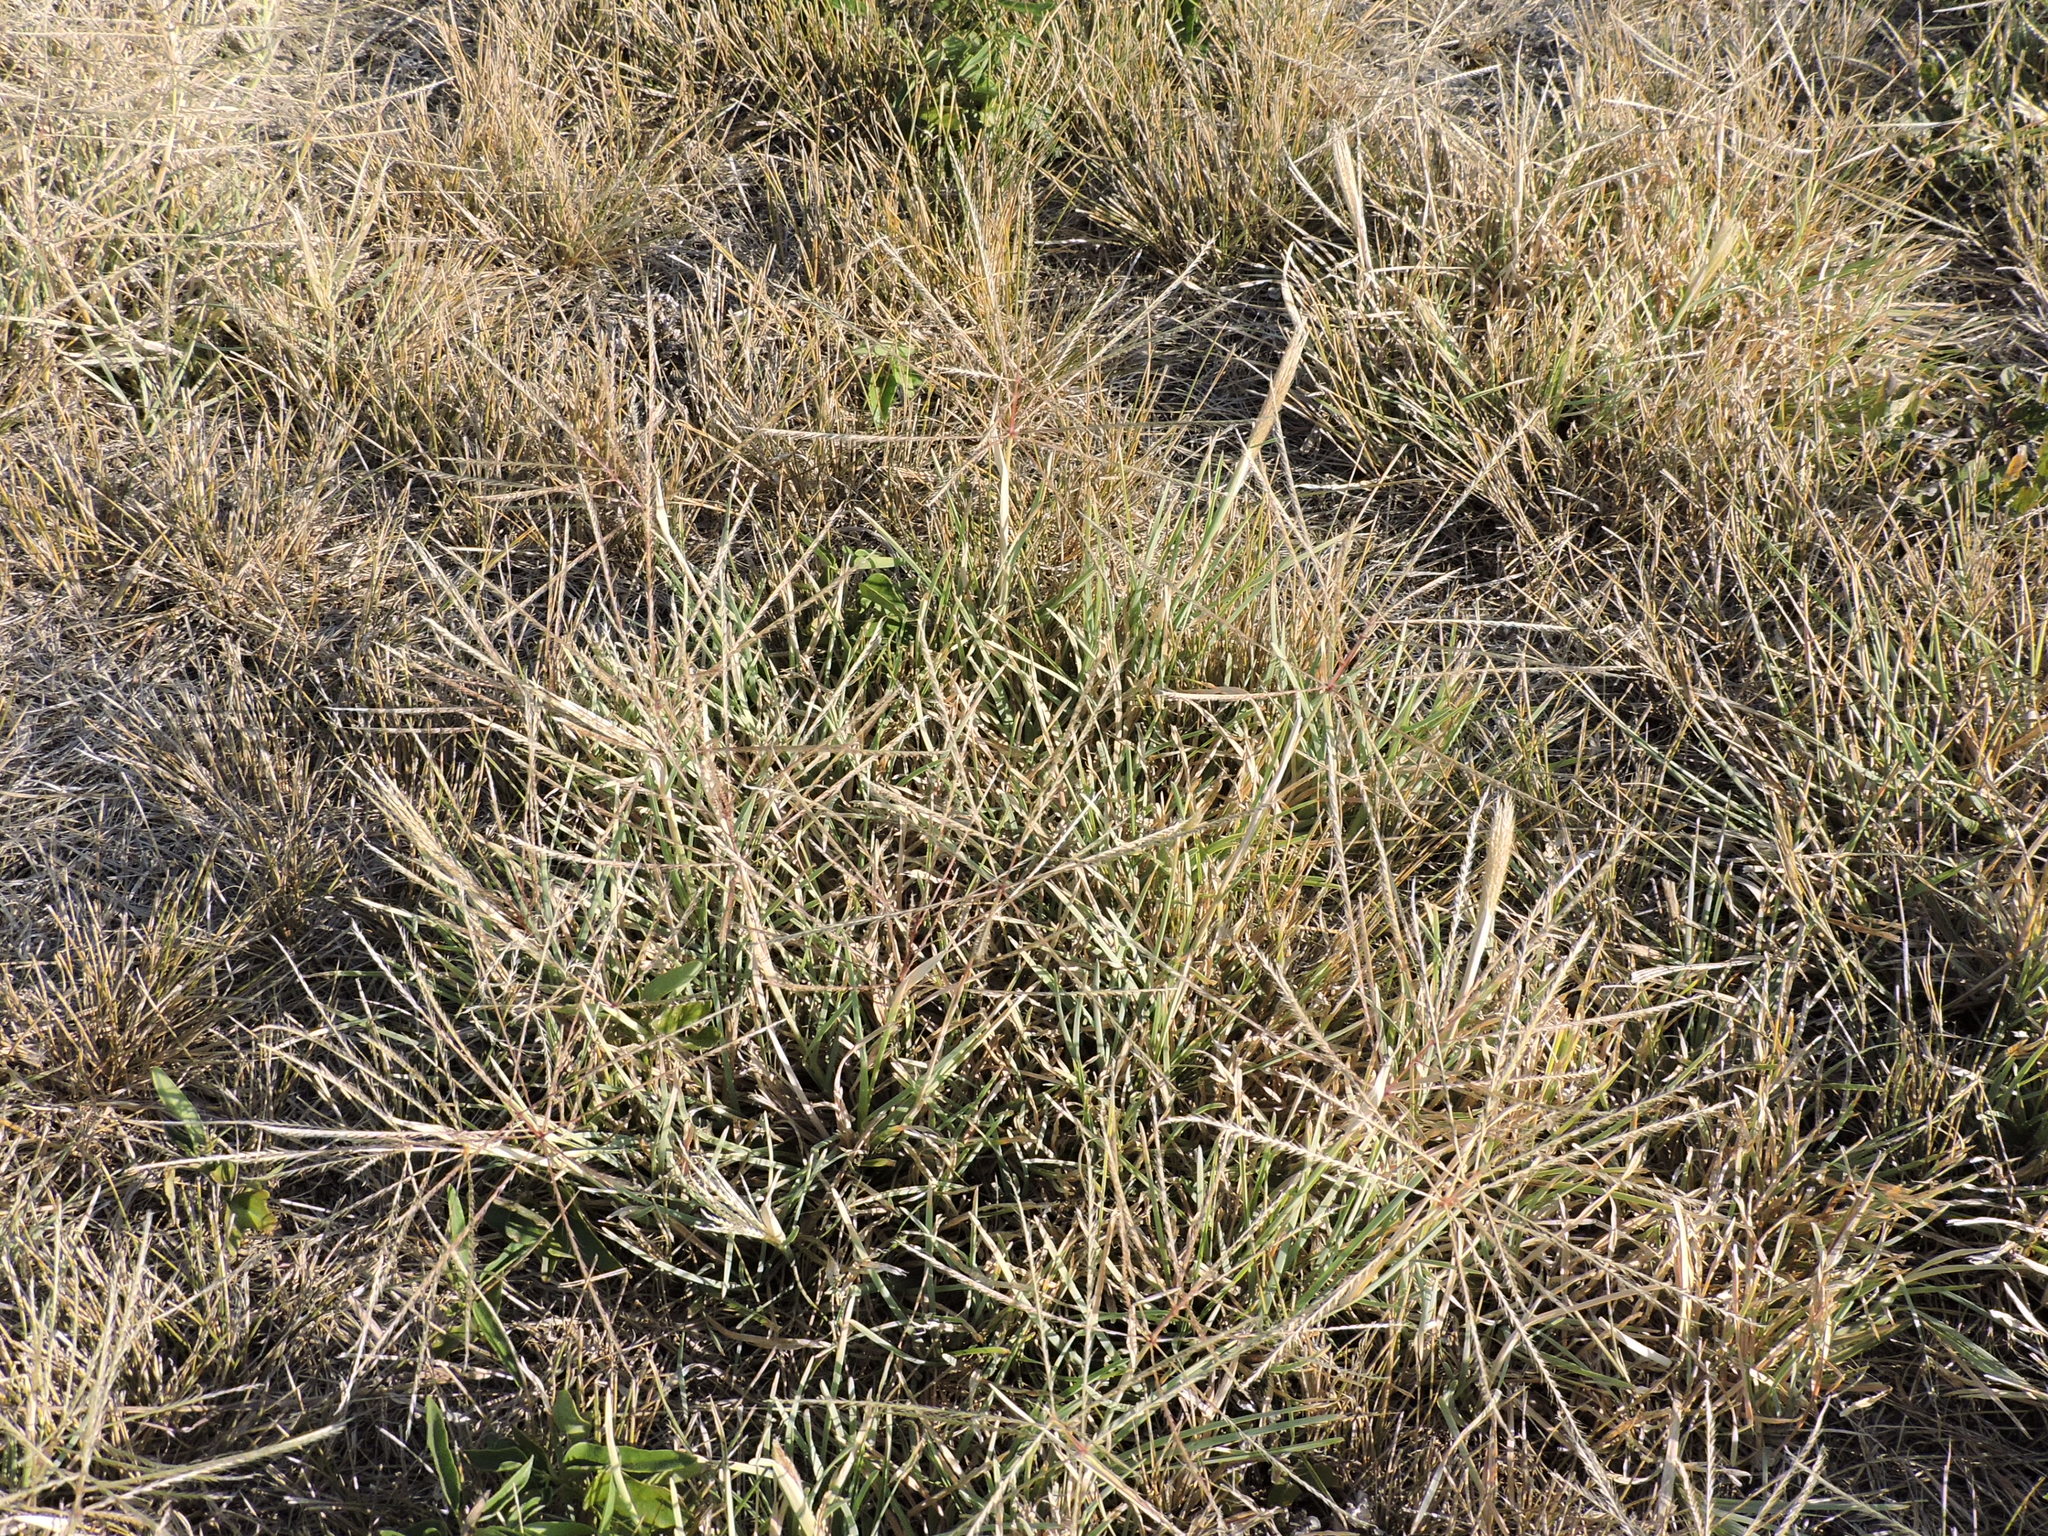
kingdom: Plantae
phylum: Tracheophyta
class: Liliopsida
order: Poales
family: Poaceae
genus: Chloris
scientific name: Chloris verticillata
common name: Tumble windmill grass
